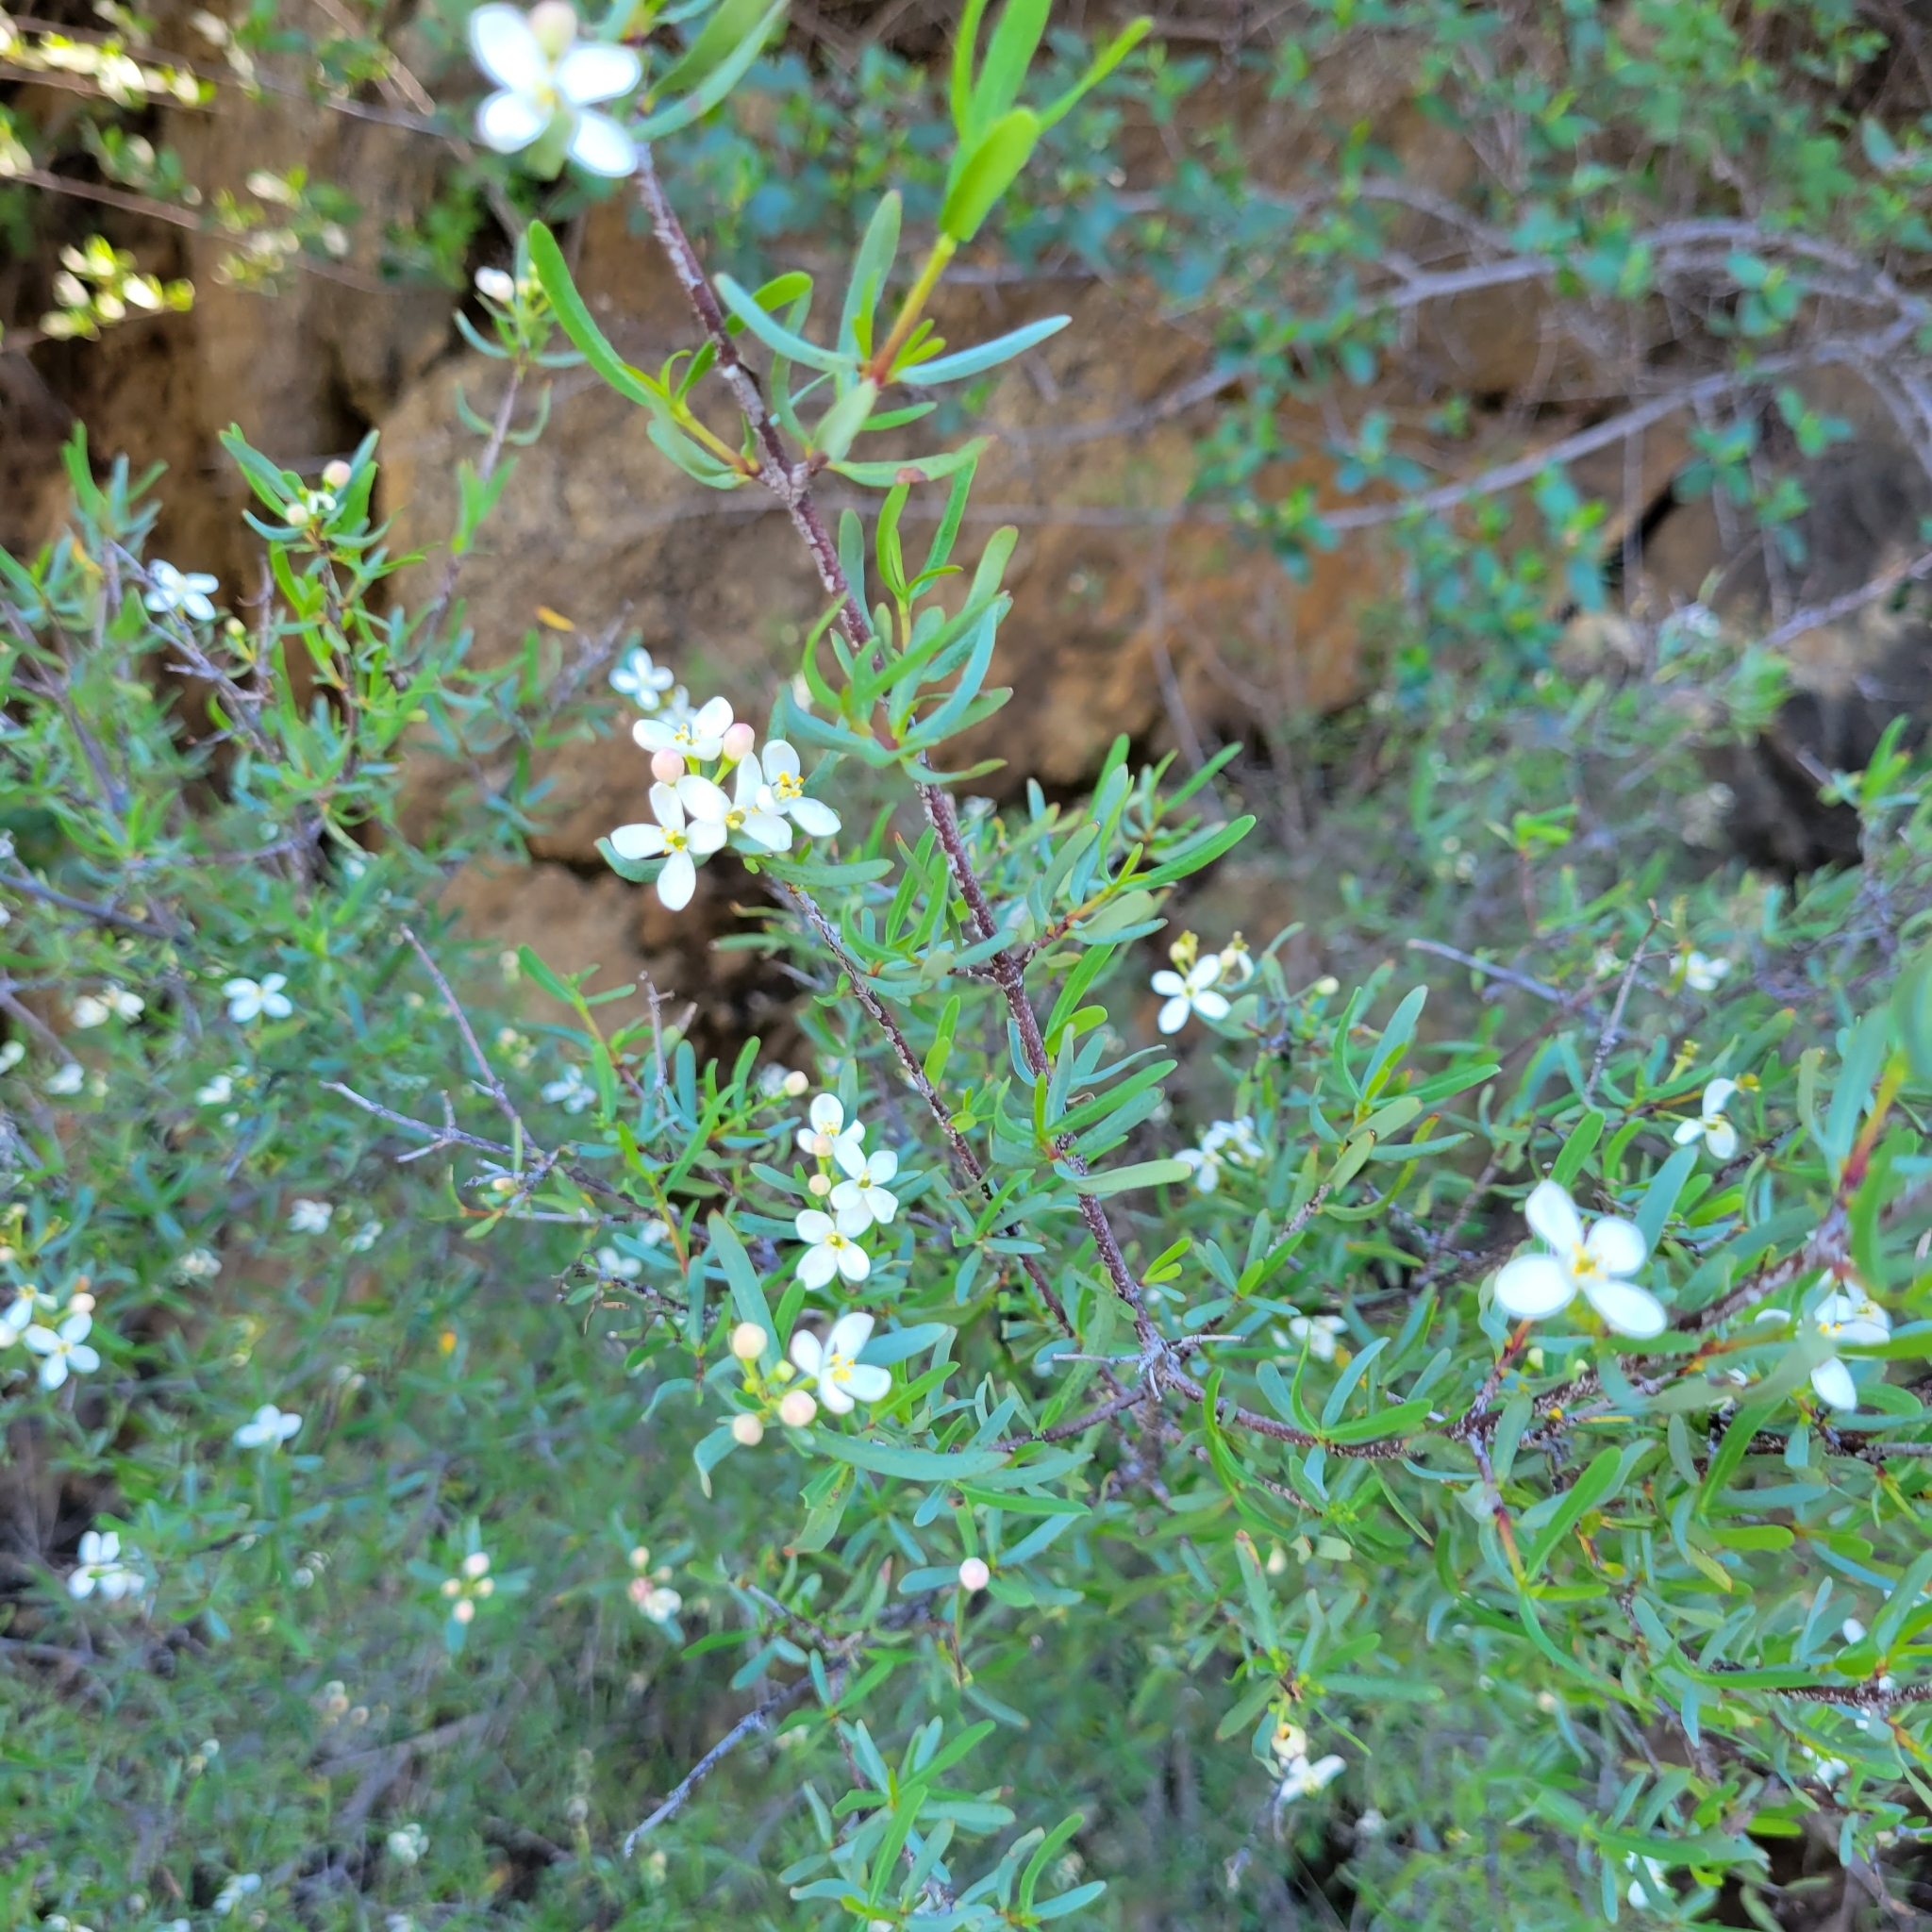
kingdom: Plantae
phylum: Tracheophyta
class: Magnoliopsida
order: Sapindales
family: Rutaceae
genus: Cneoridium
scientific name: Cneoridium dumosum
